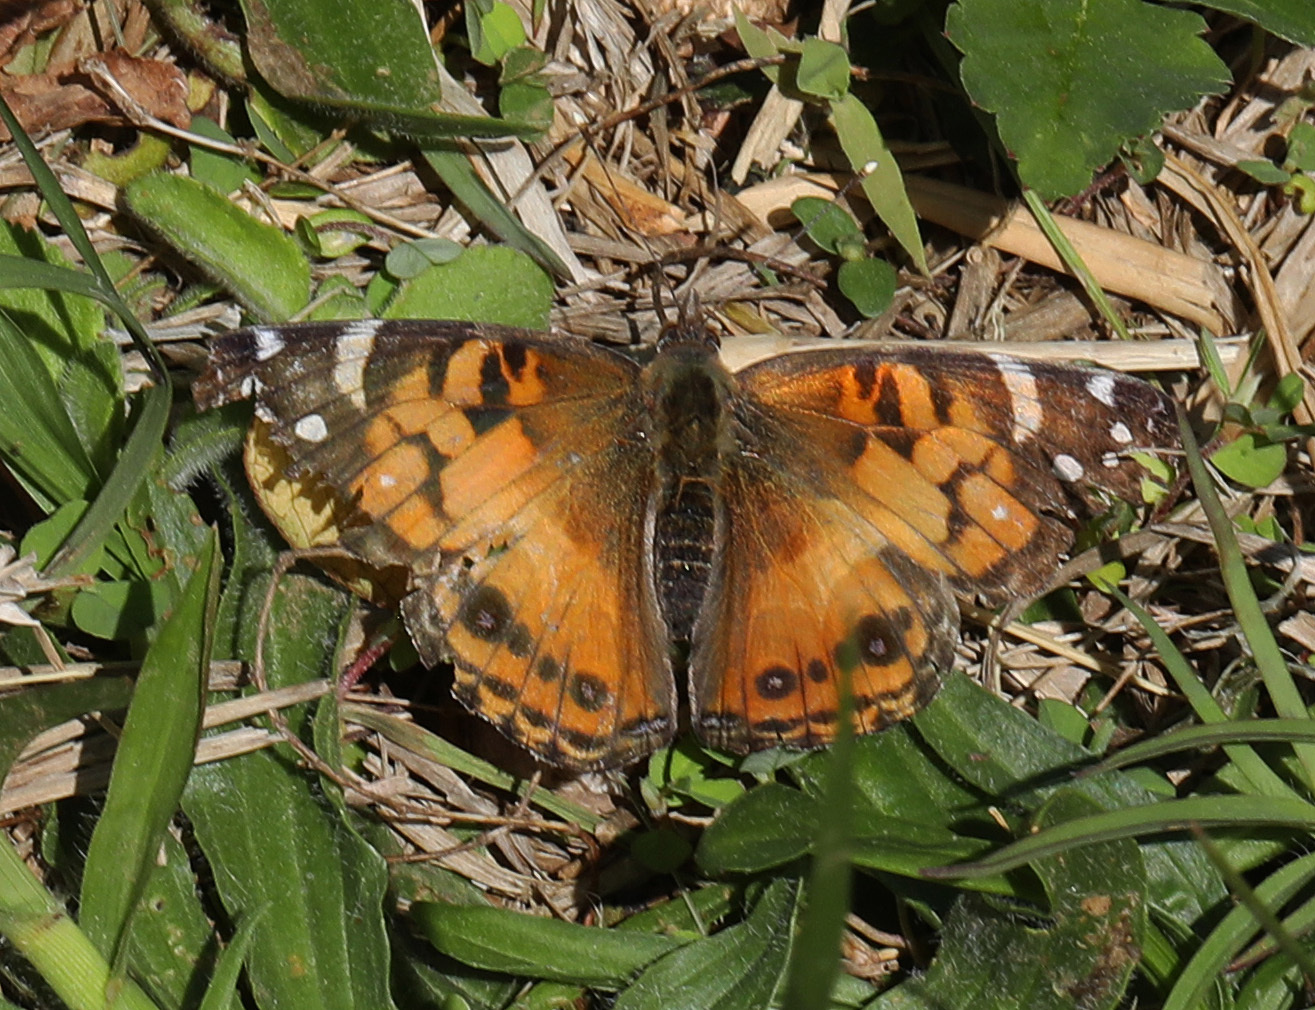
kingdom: Animalia
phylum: Arthropoda
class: Insecta
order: Lepidoptera
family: Nymphalidae
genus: Vanessa
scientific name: Vanessa virginiensis
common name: American lady
